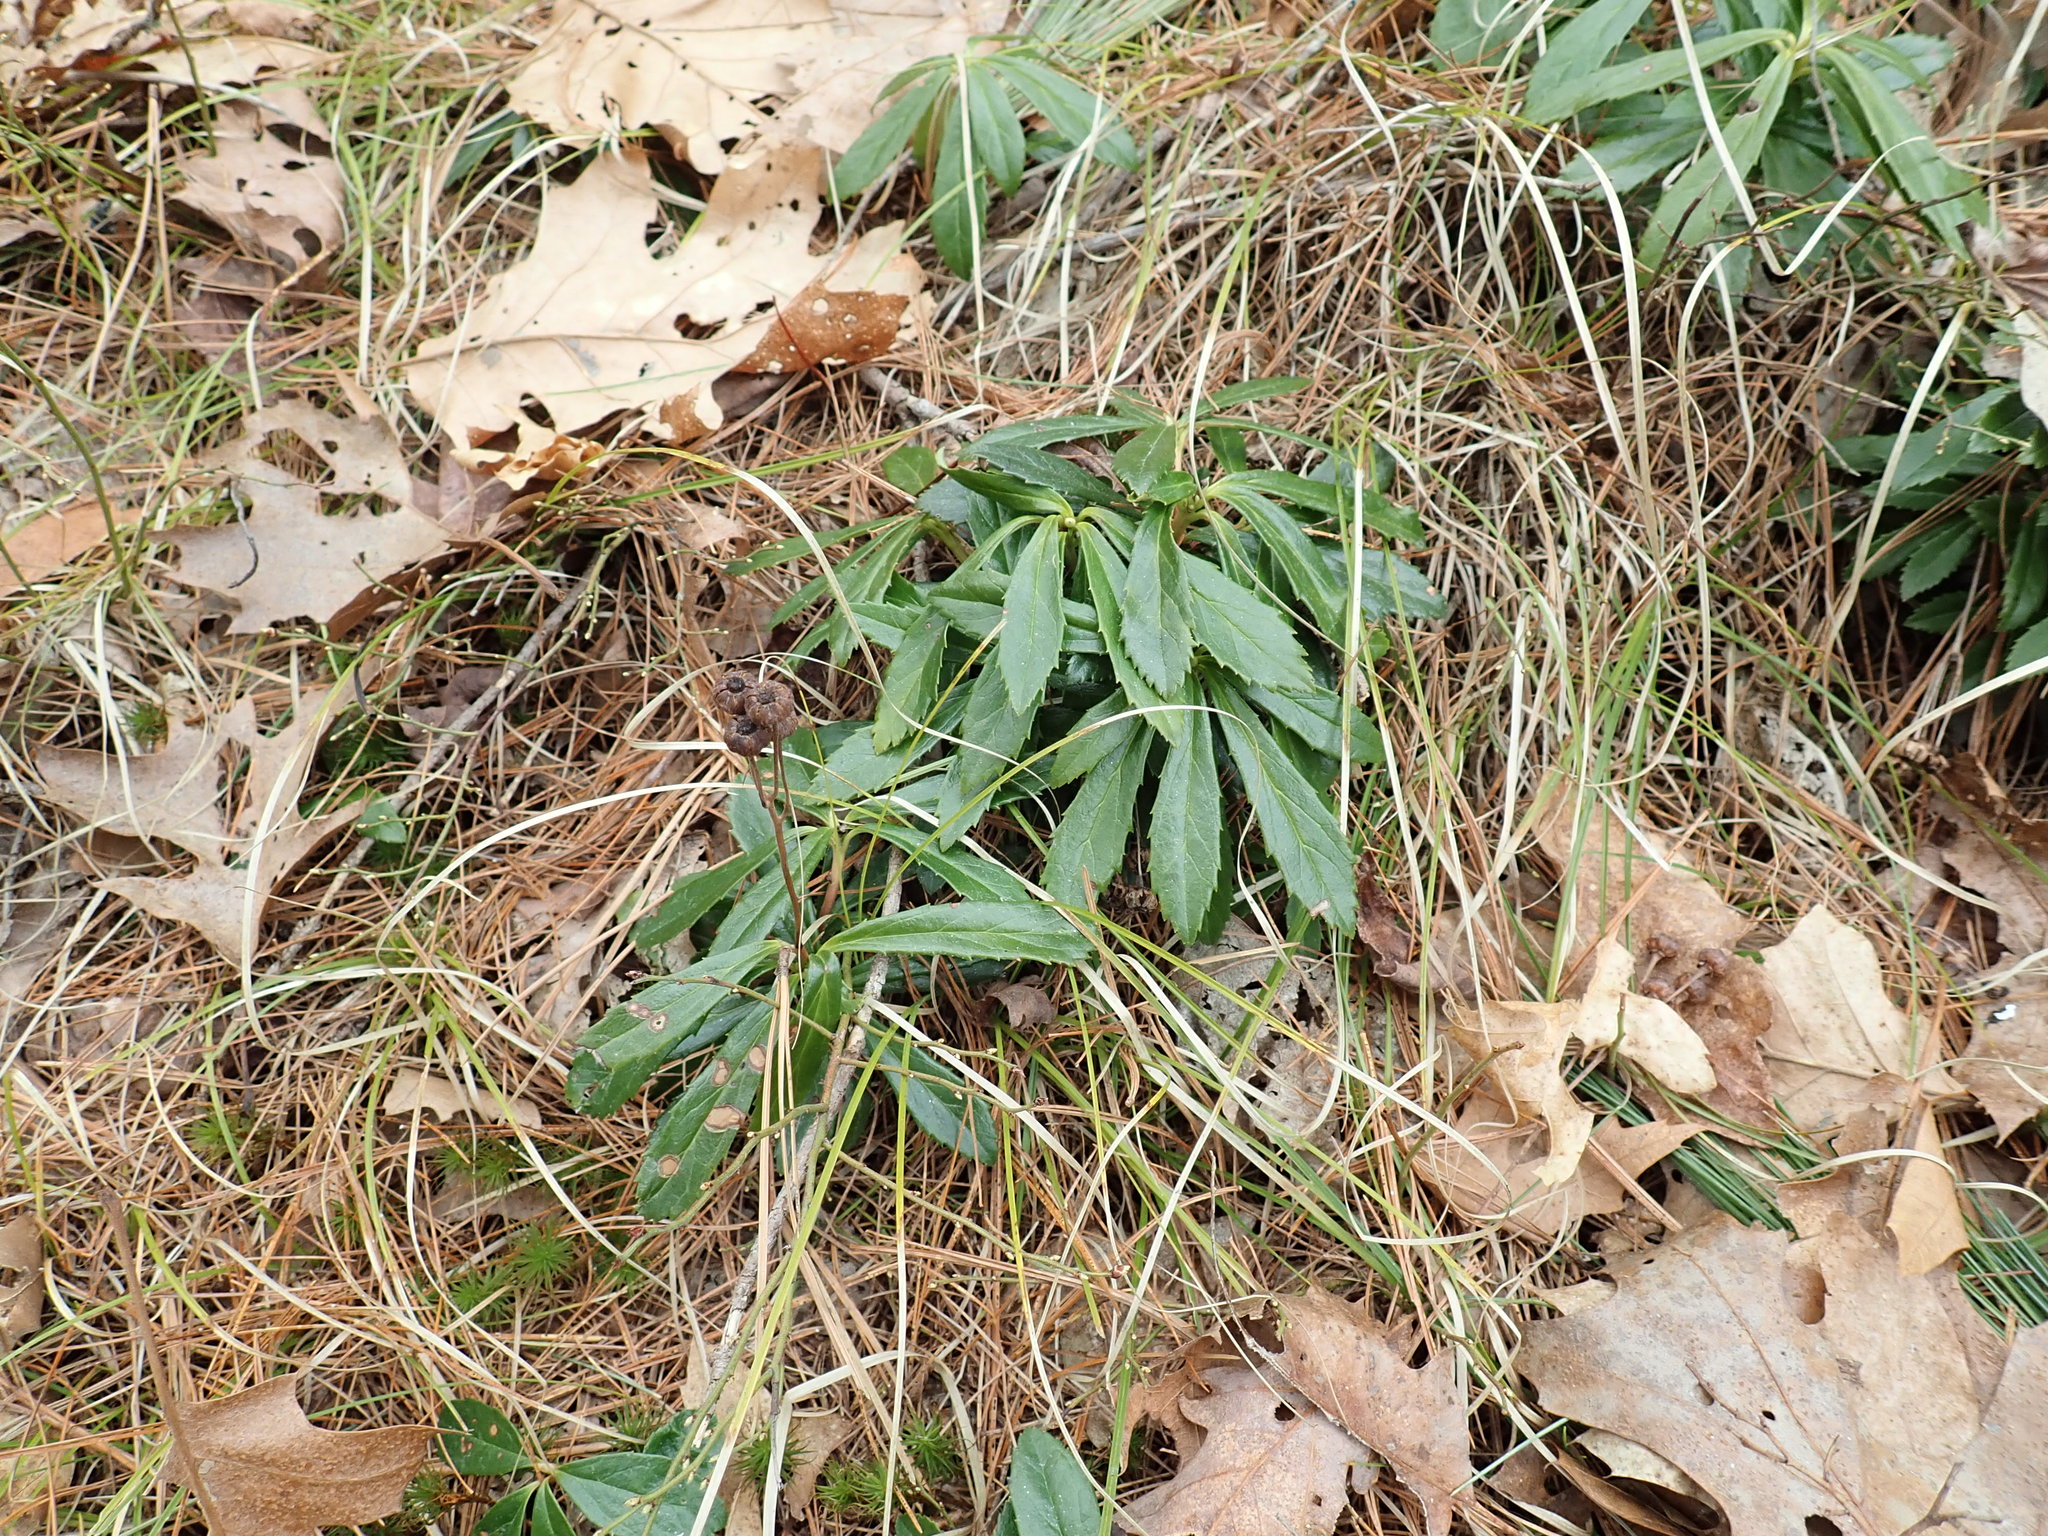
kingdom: Plantae
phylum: Tracheophyta
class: Magnoliopsida
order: Ericales
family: Ericaceae
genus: Chimaphila
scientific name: Chimaphila umbellata
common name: Pipsissewa
